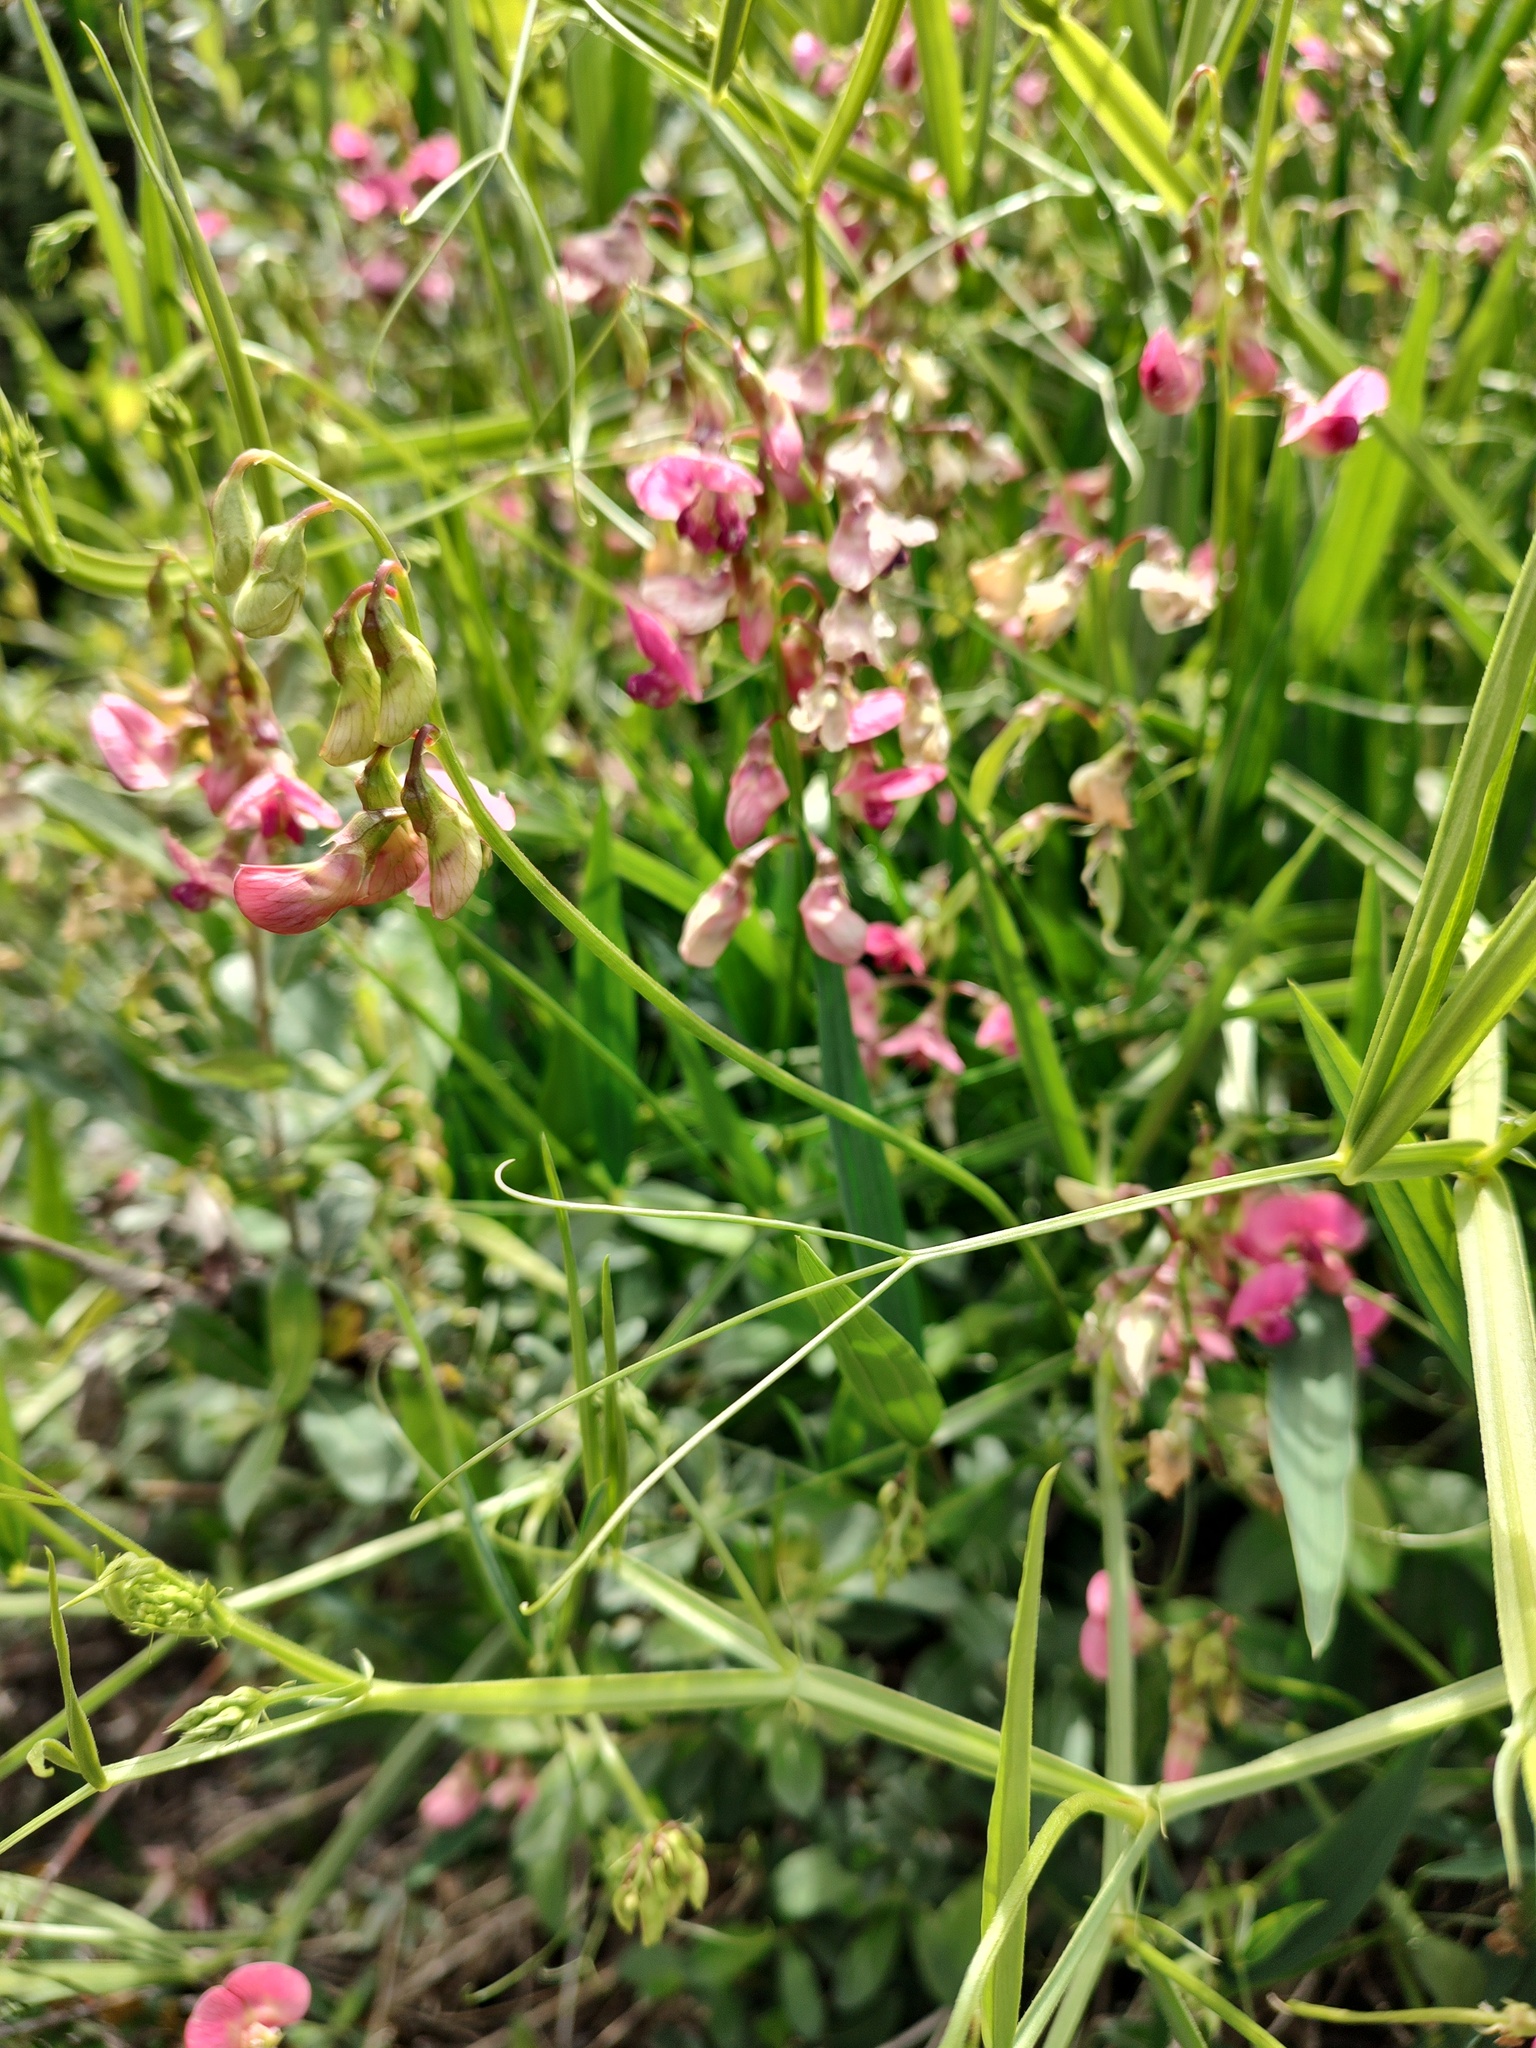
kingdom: Plantae
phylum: Tracheophyta
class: Magnoliopsida
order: Fabales
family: Fabaceae
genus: Lathyrus
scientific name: Lathyrus sylvestris
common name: Flat pea
